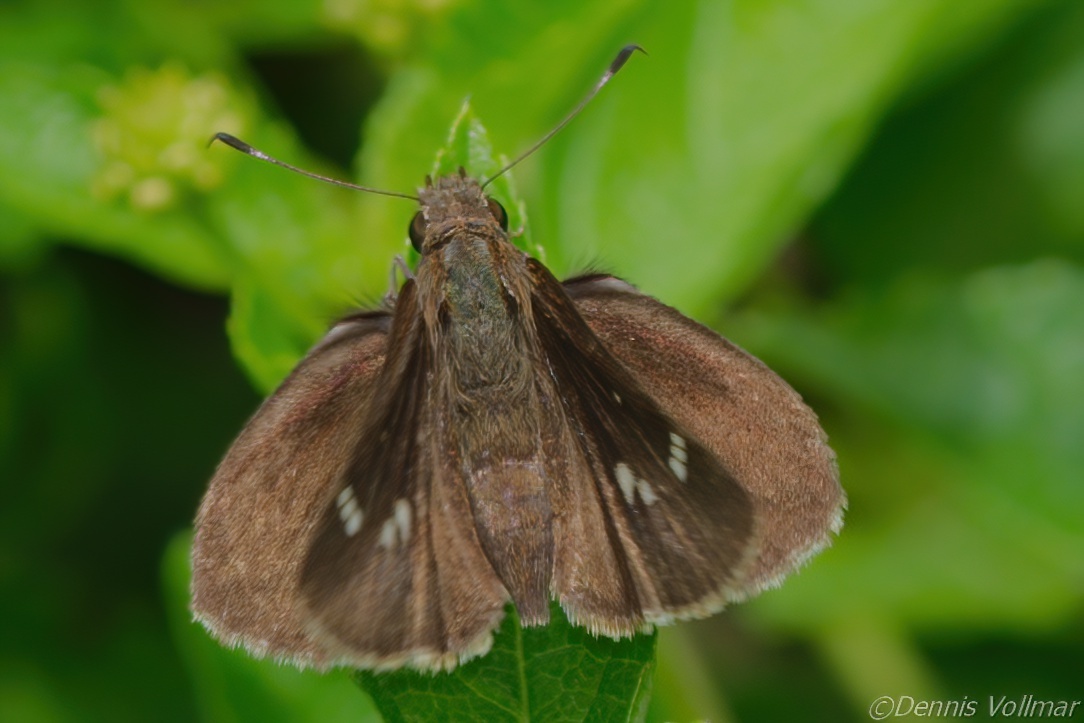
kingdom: Animalia
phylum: Arthropoda
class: Insecta
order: Lepidoptera
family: Hesperiidae
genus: Lerema
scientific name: Lerema accius
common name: Clouded skipper
